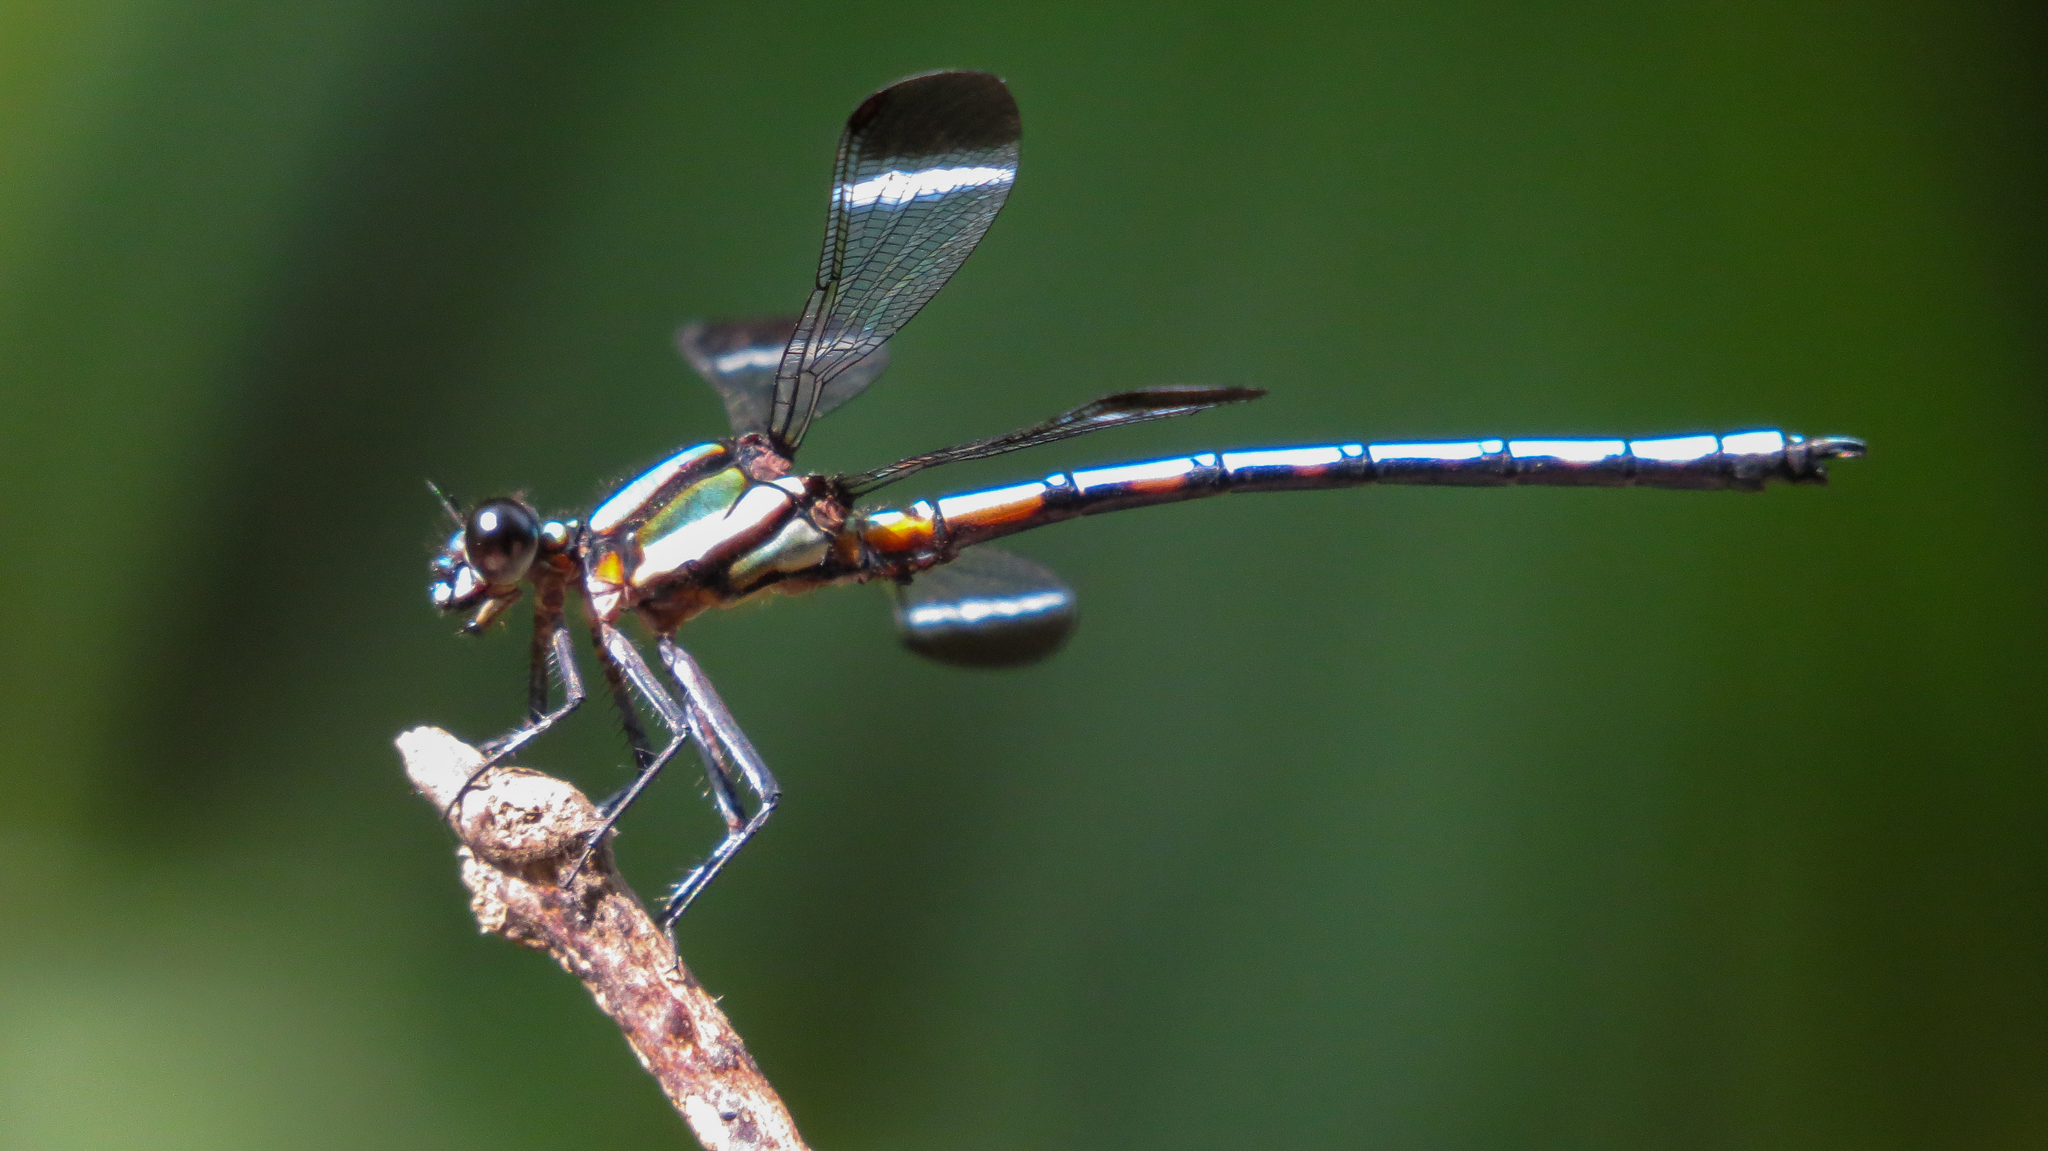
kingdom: Animalia
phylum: Arthropoda
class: Insecta
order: Odonata
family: Lestoideidae
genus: Diphlebia
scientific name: Diphlebia lestoides
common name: Whitewater rockmaster
